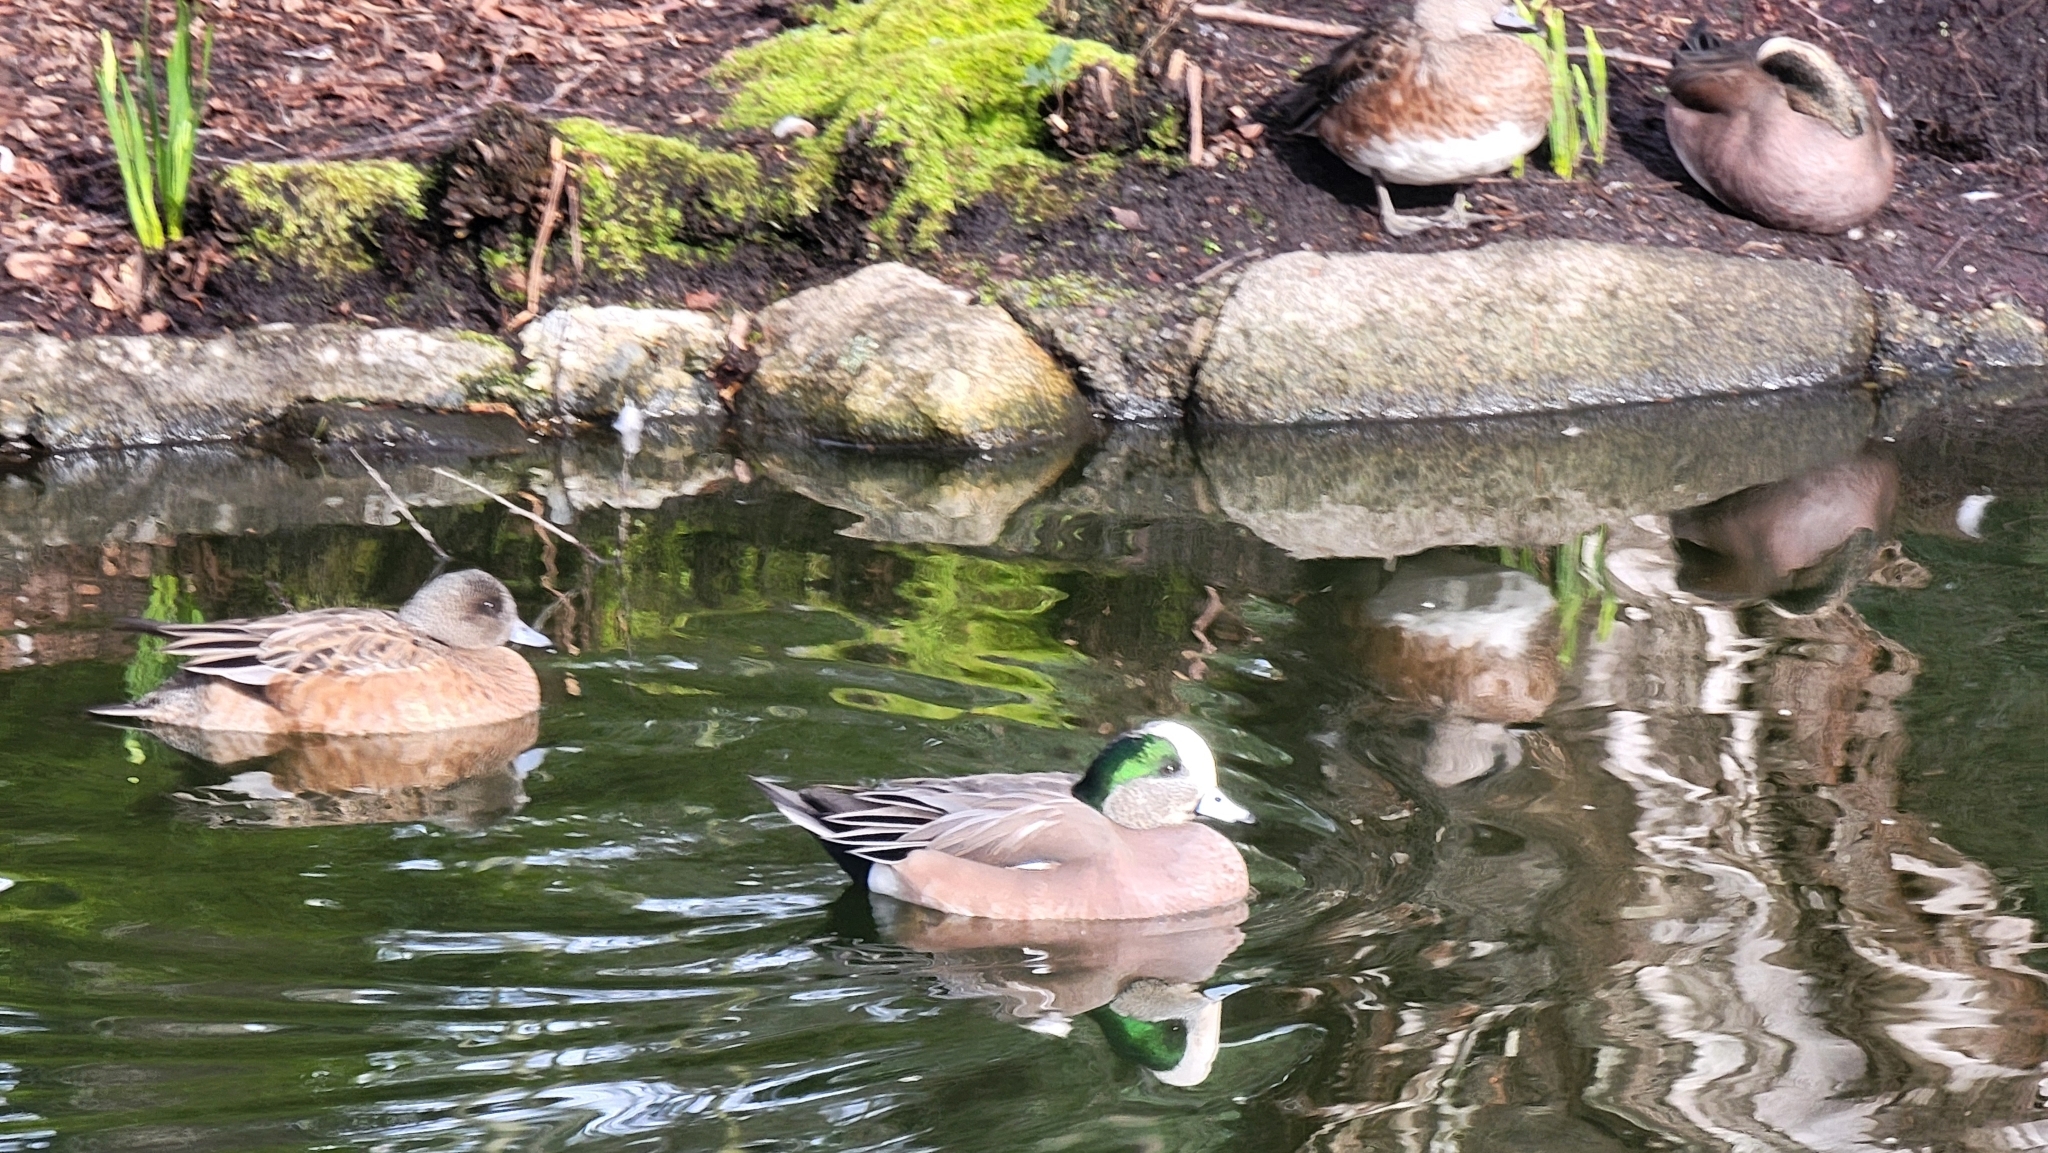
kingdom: Animalia
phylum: Chordata
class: Aves
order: Anseriformes
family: Anatidae
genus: Mareca
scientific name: Mareca americana
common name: American wigeon
